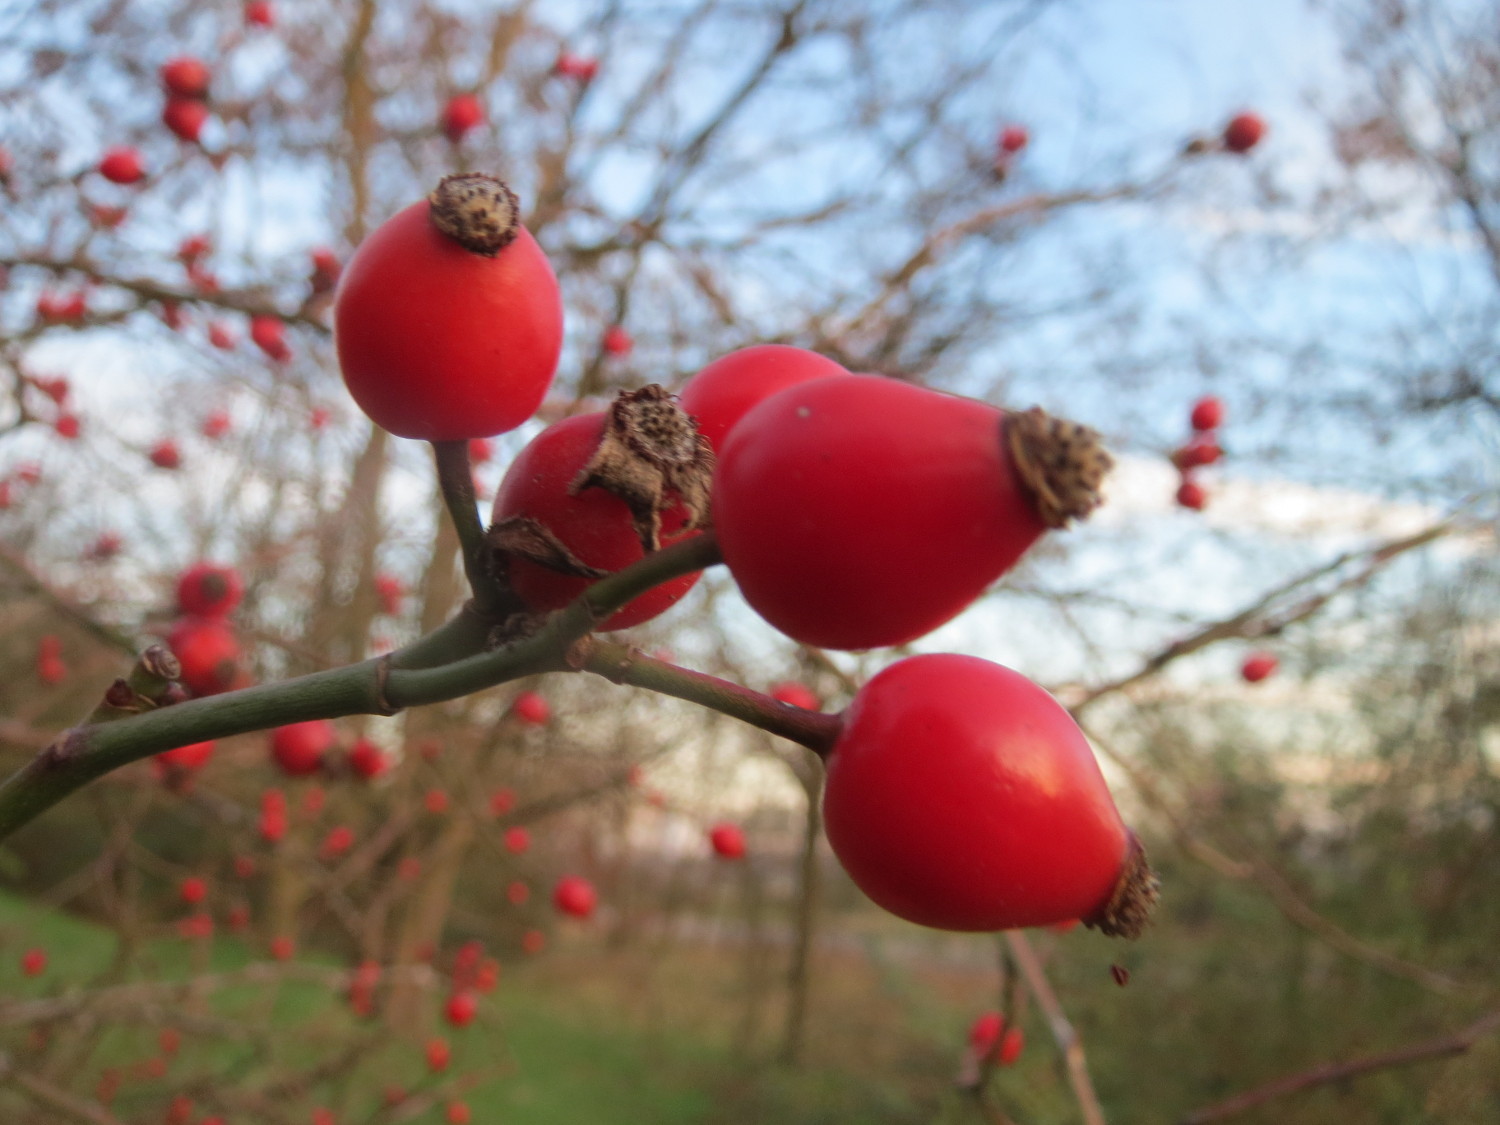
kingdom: Plantae
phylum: Tracheophyta
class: Magnoliopsida
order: Rosales
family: Rosaceae
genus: Rosa
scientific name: Rosa canina
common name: Dog rose
